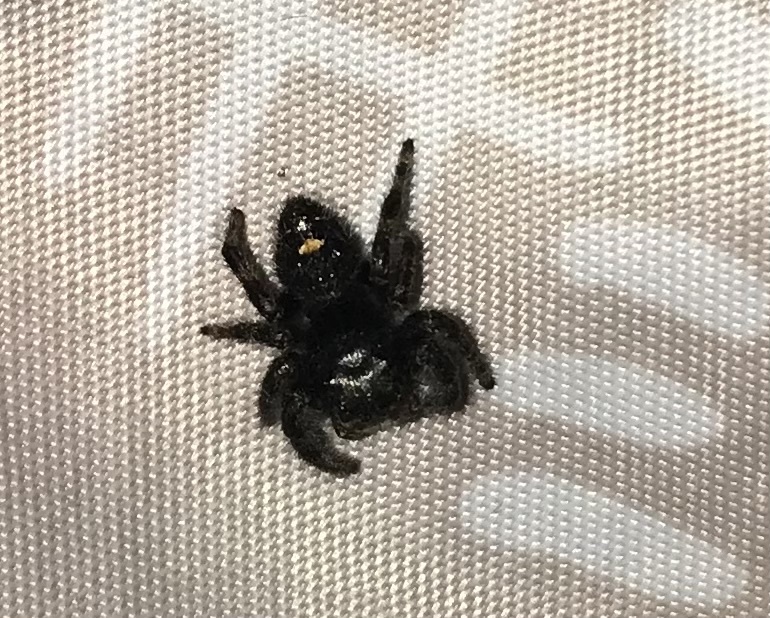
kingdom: Animalia
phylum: Arthropoda
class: Arachnida
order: Araneae
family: Salticidae
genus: Phidippus
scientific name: Phidippus audax
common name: Bold jumper
